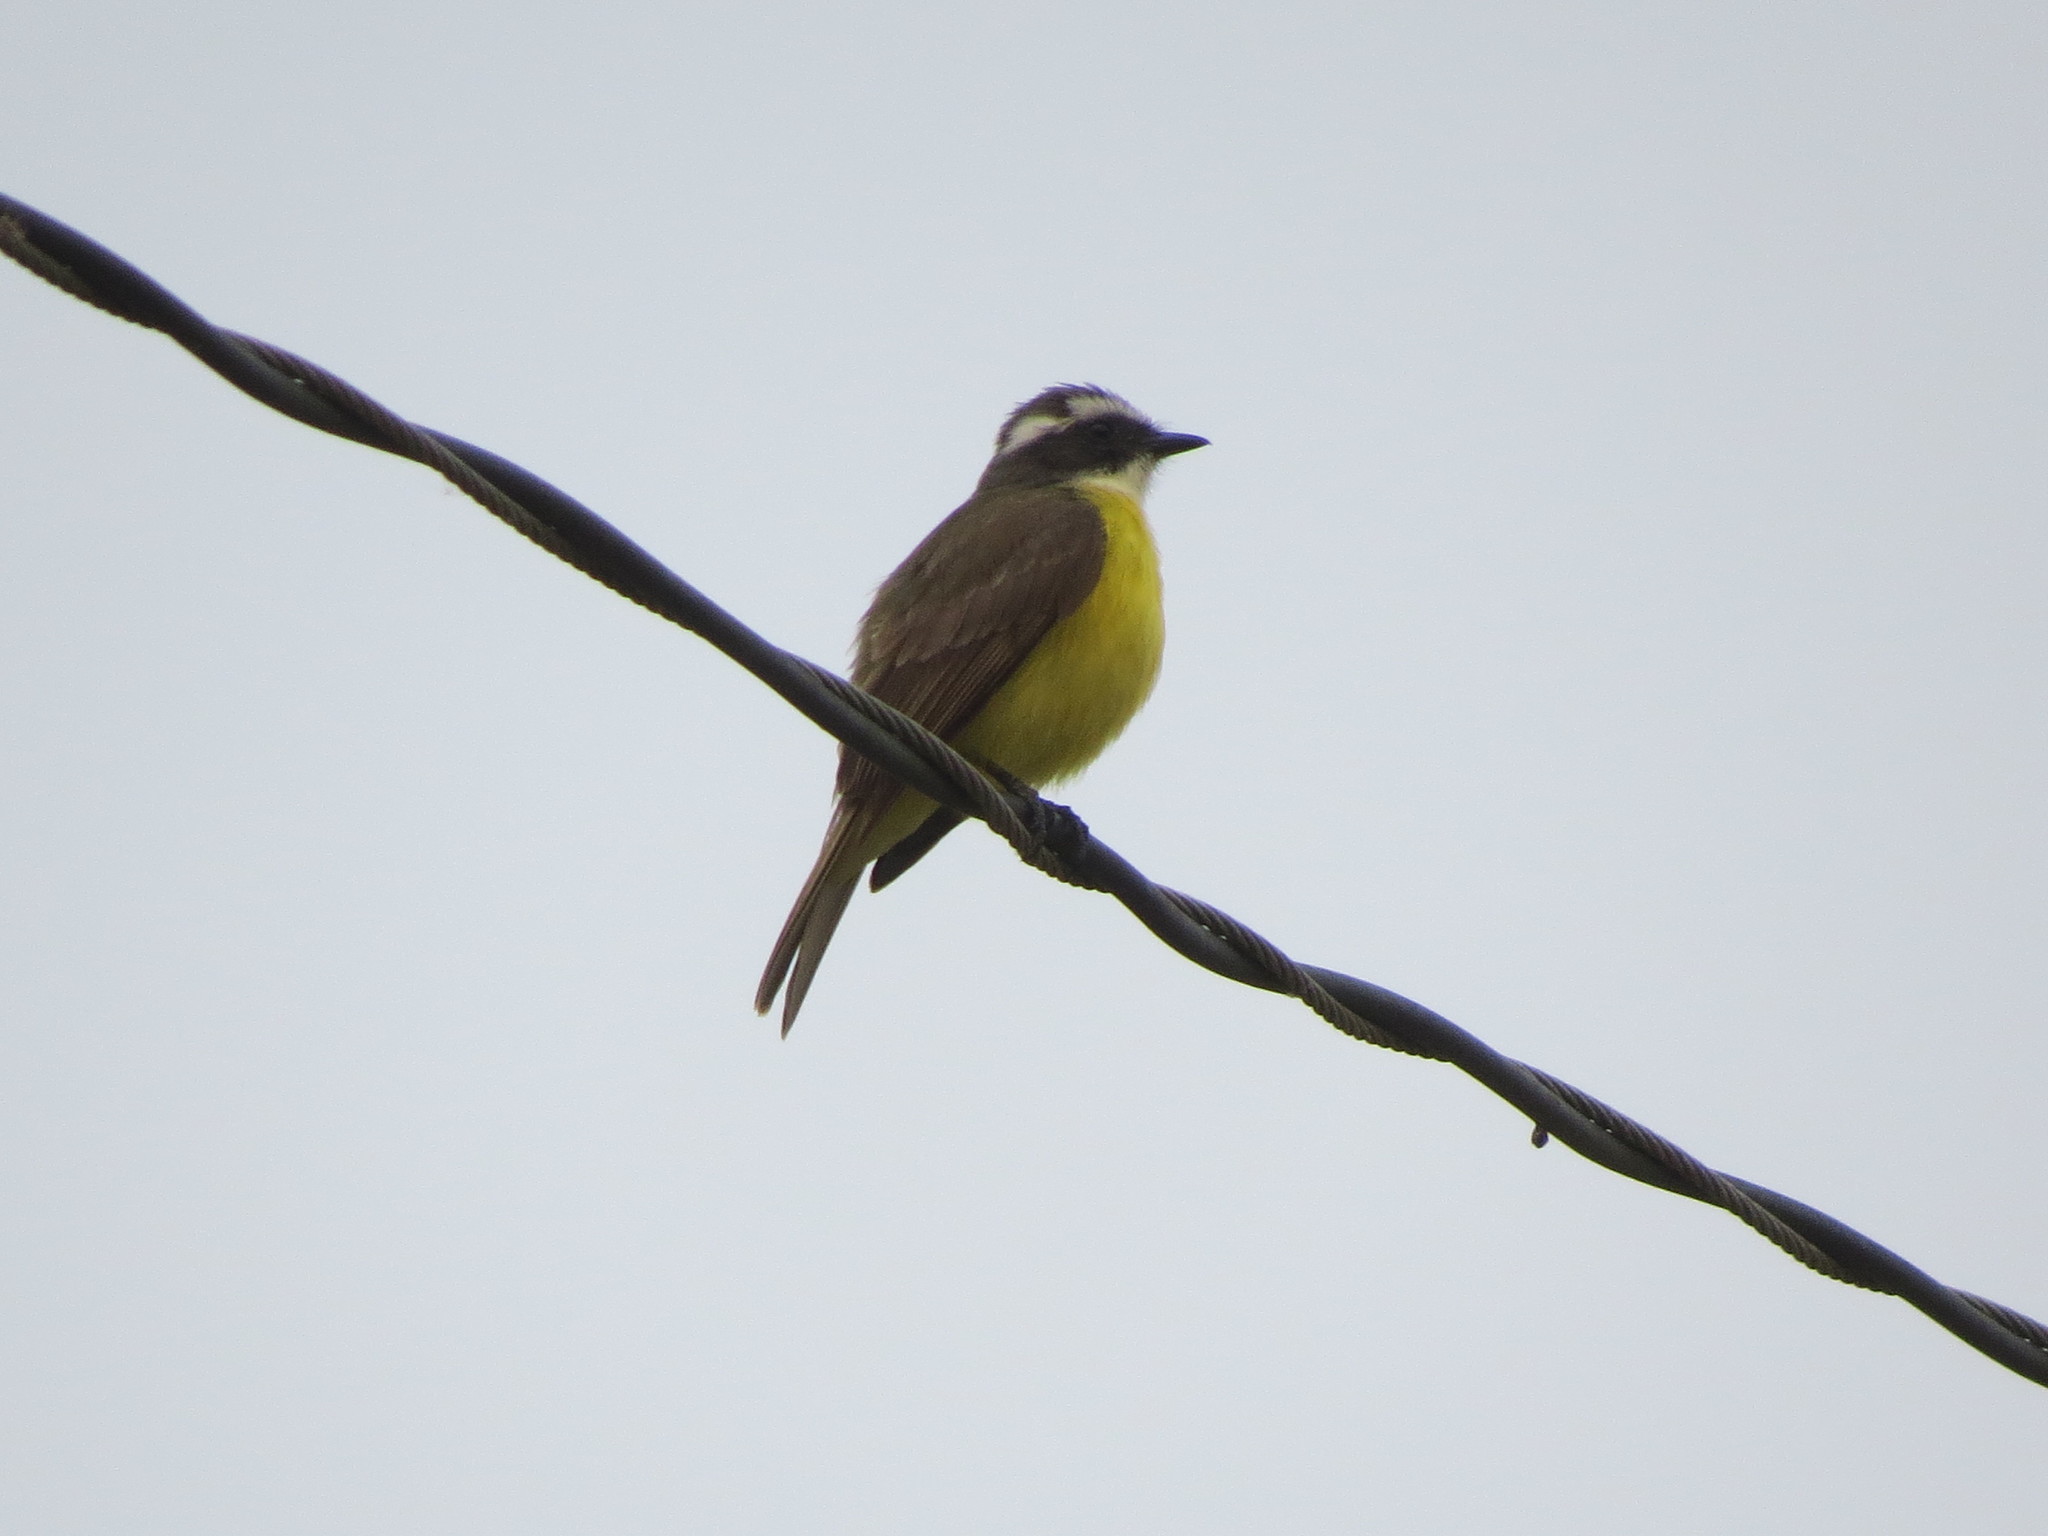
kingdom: Animalia
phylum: Chordata
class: Aves
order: Passeriformes
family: Tyrannidae
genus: Myiozetetes
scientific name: Myiozetetes similis
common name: Social flycatcher
